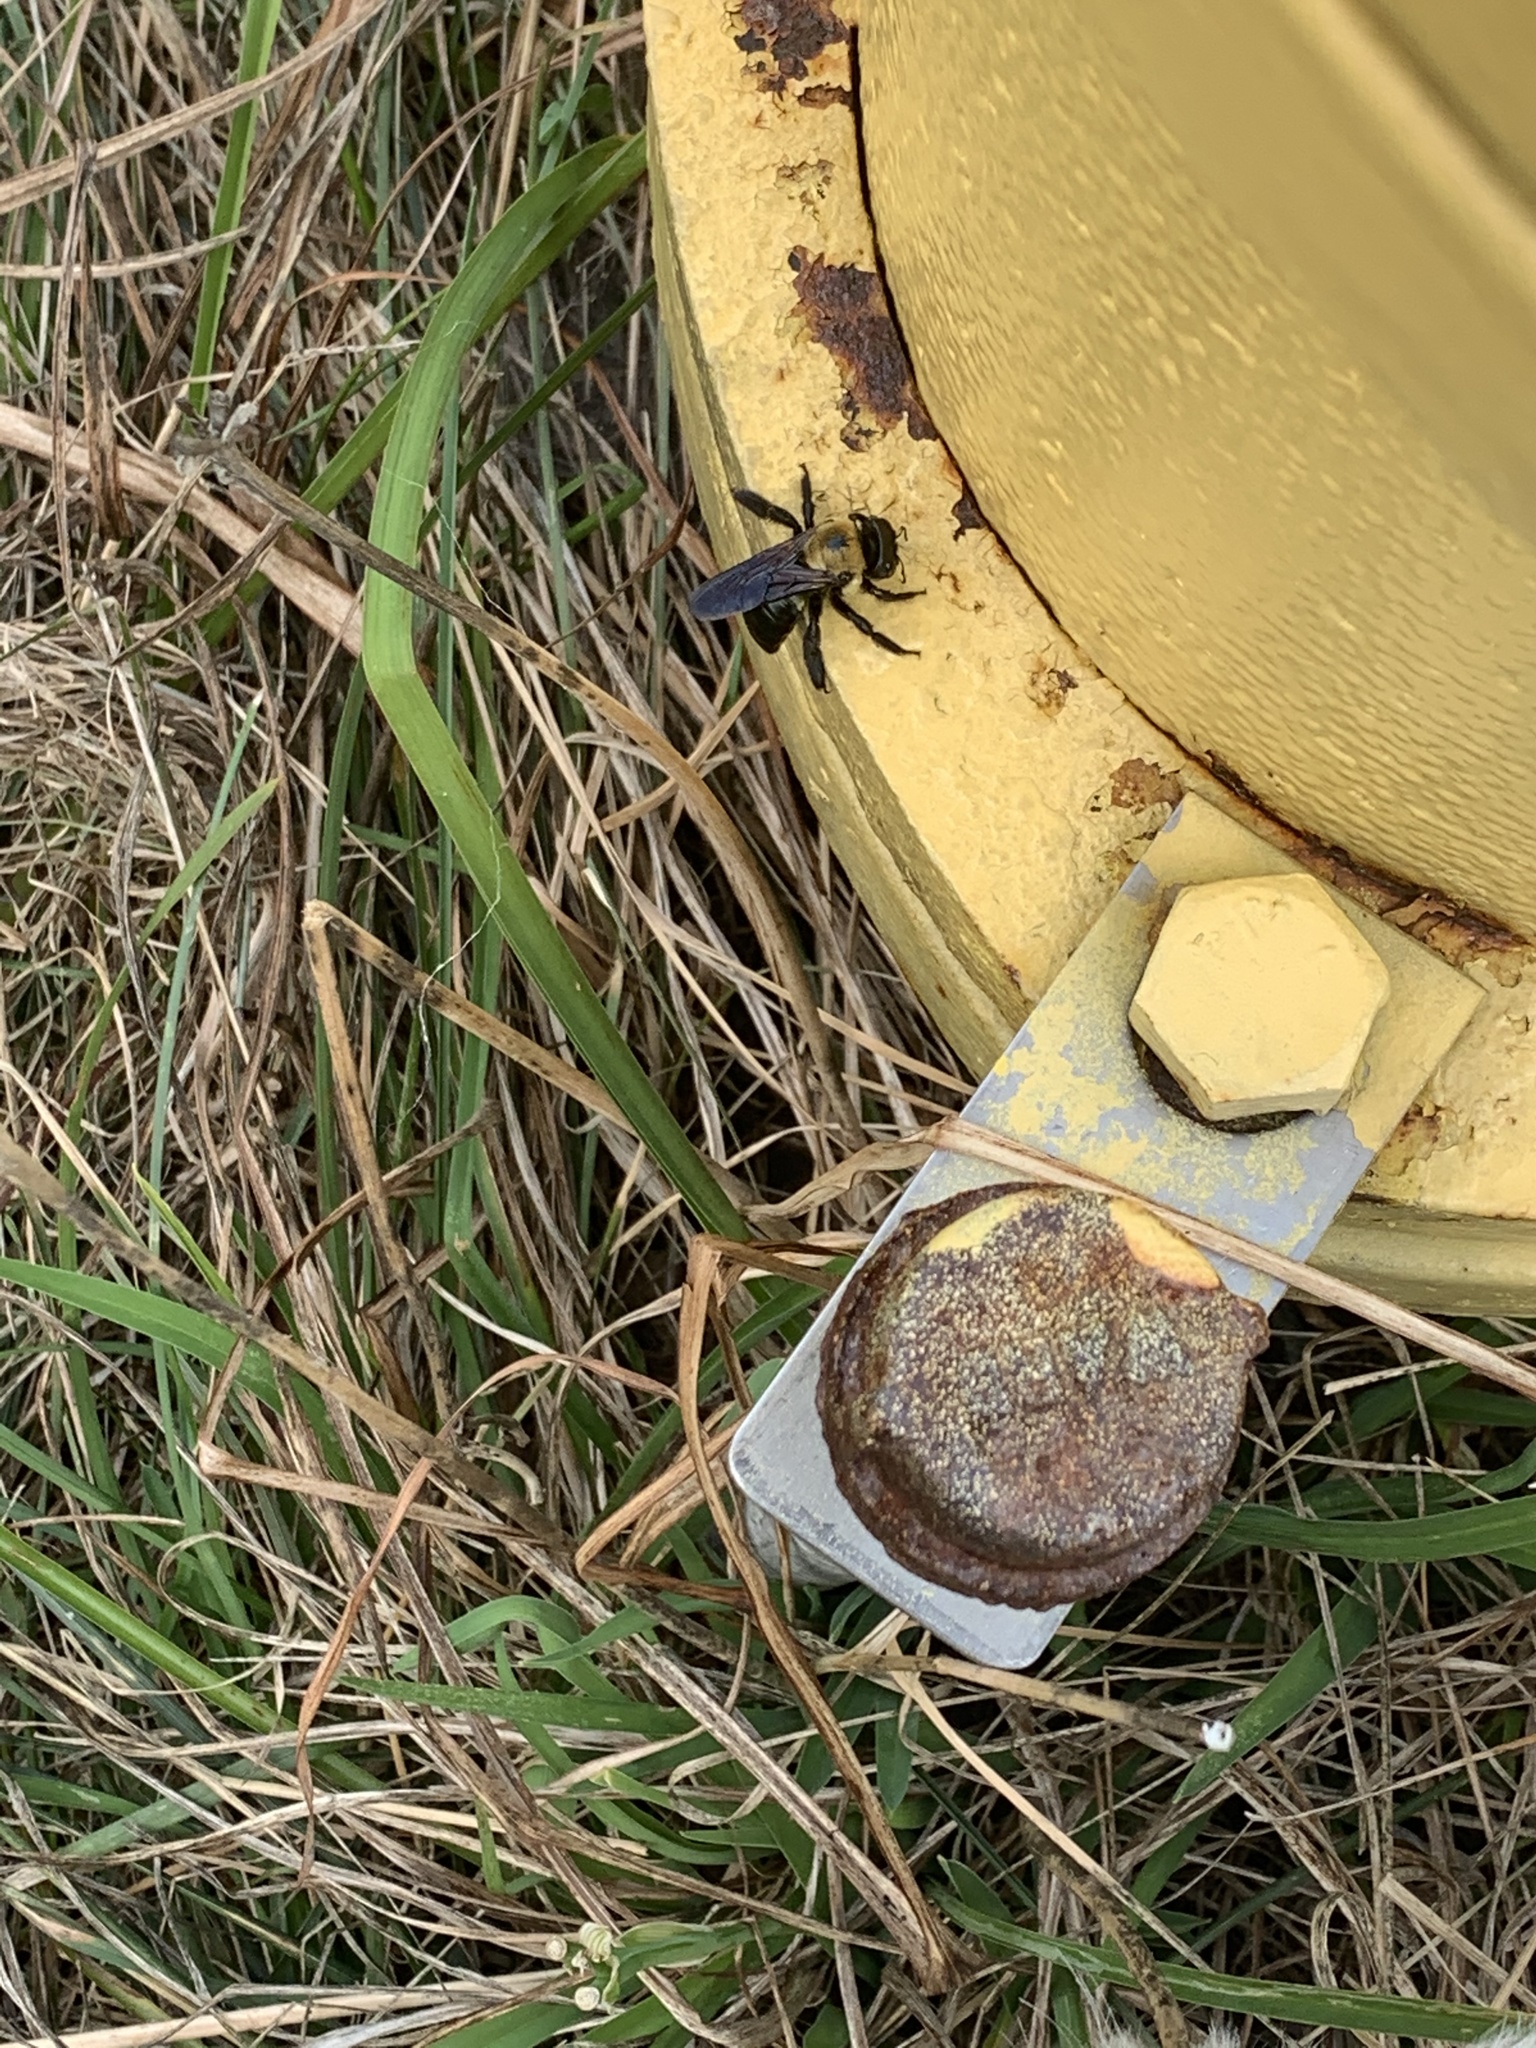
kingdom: Animalia
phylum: Arthropoda
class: Insecta
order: Hymenoptera
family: Apidae
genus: Xylocopa
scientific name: Xylocopa virginica
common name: Carpenter bee
